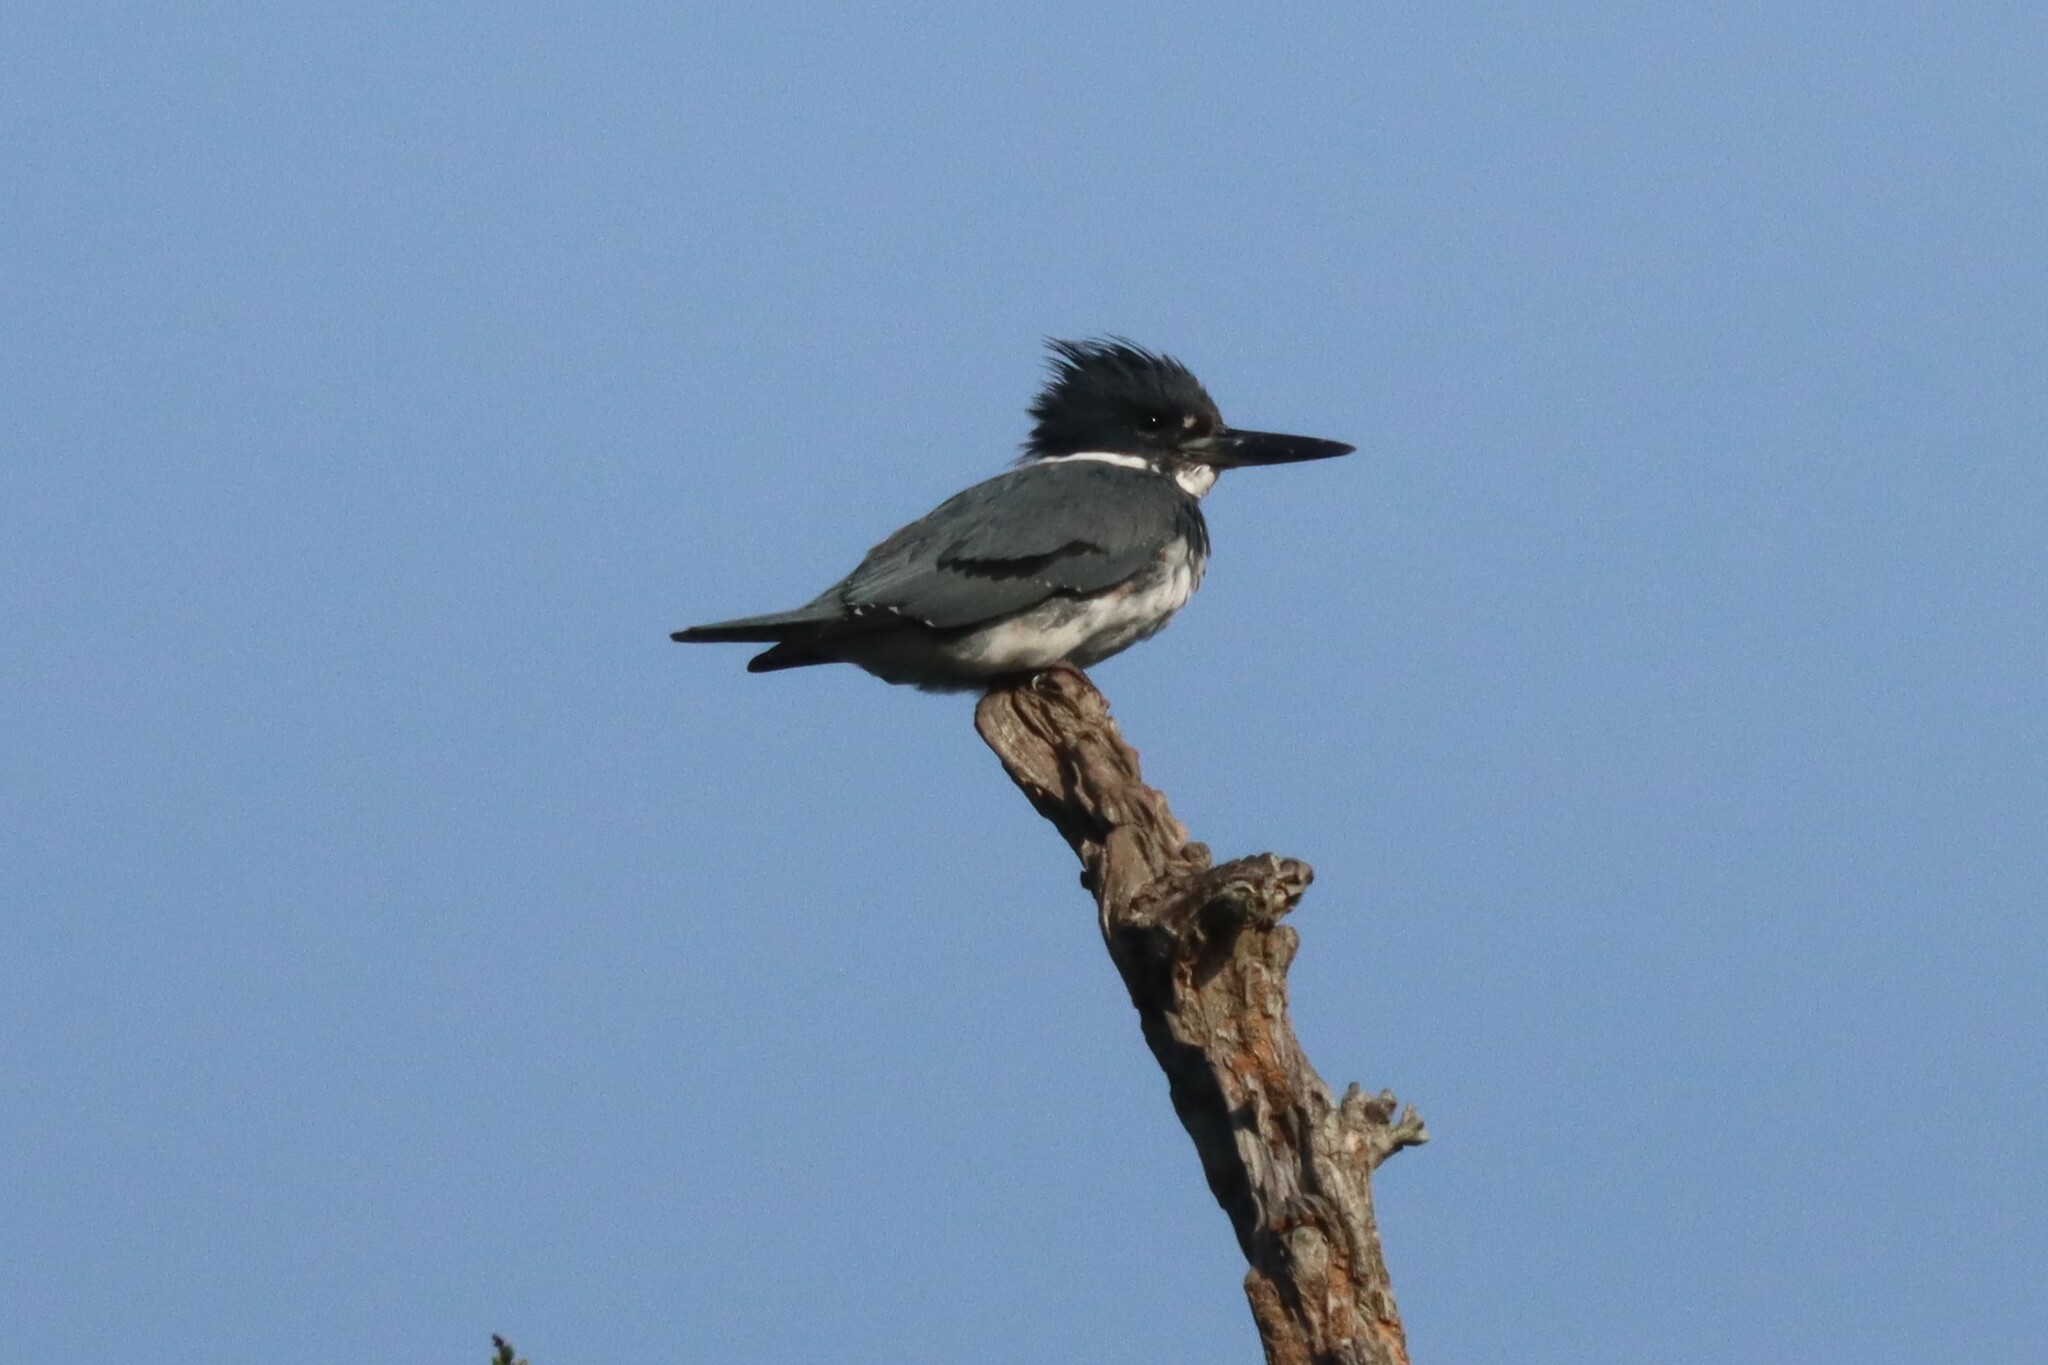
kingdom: Animalia
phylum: Chordata
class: Aves
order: Coraciiformes
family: Alcedinidae
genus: Megaceryle
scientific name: Megaceryle alcyon
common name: Belted kingfisher
